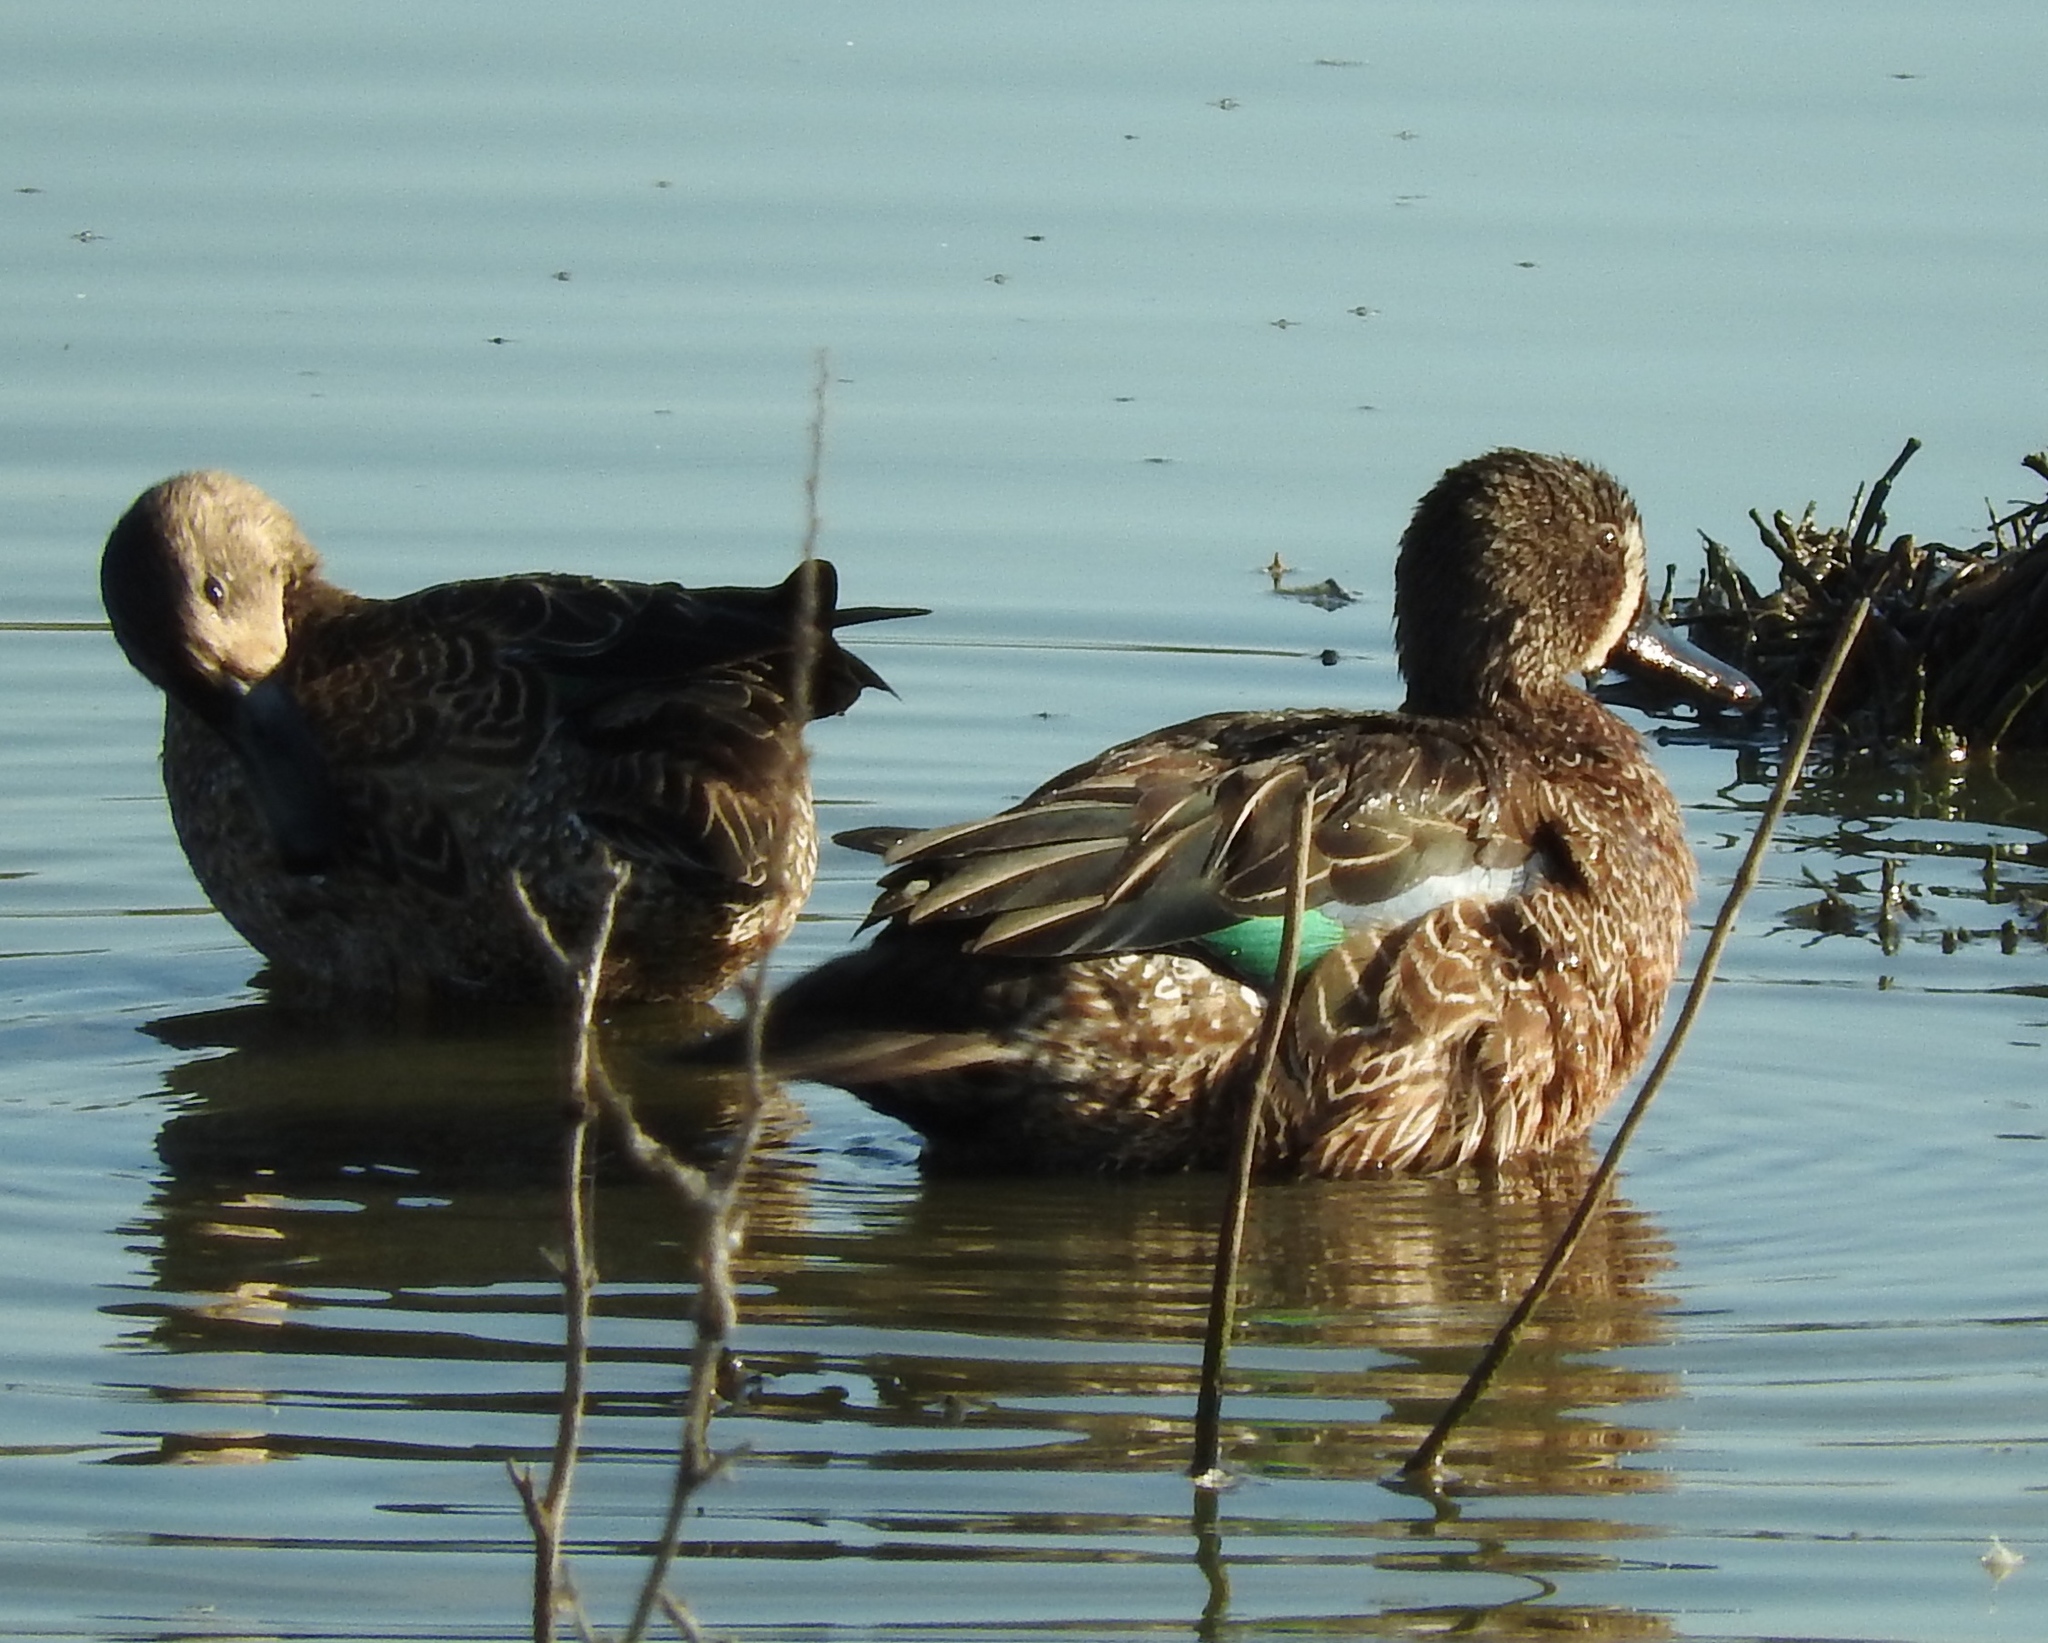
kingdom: Animalia
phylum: Chordata
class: Aves
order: Anseriformes
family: Anatidae
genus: Spatula
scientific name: Spatula discors
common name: Blue-winged teal
